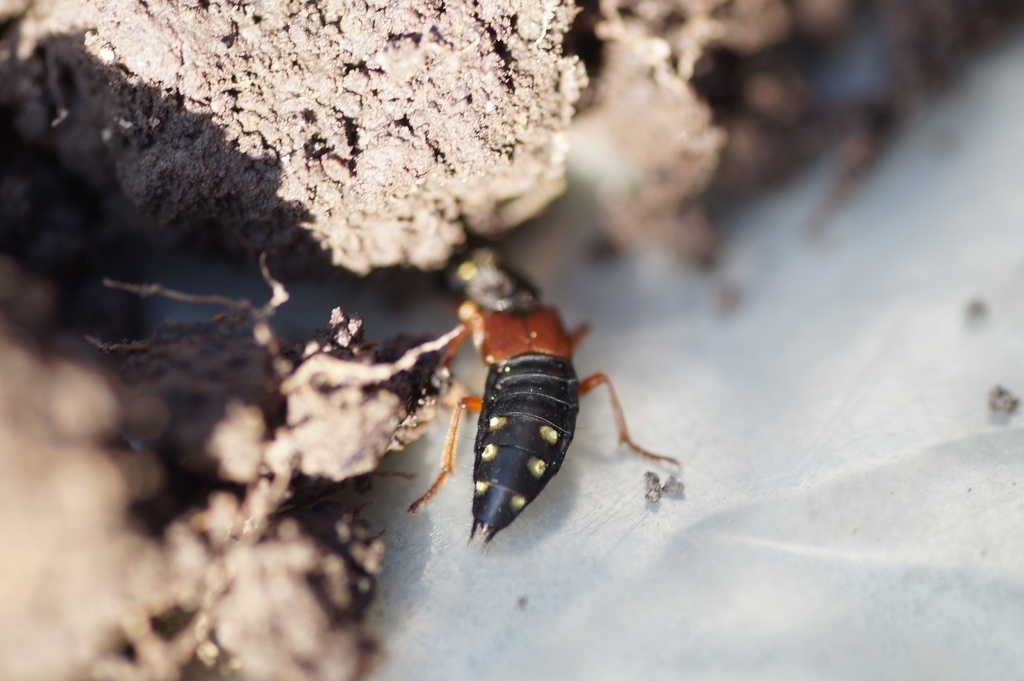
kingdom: Animalia
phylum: Arthropoda
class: Insecta
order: Coleoptera
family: Staphylinidae
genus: Staphylinus
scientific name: Staphylinus erythropterus
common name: Staph beetle
